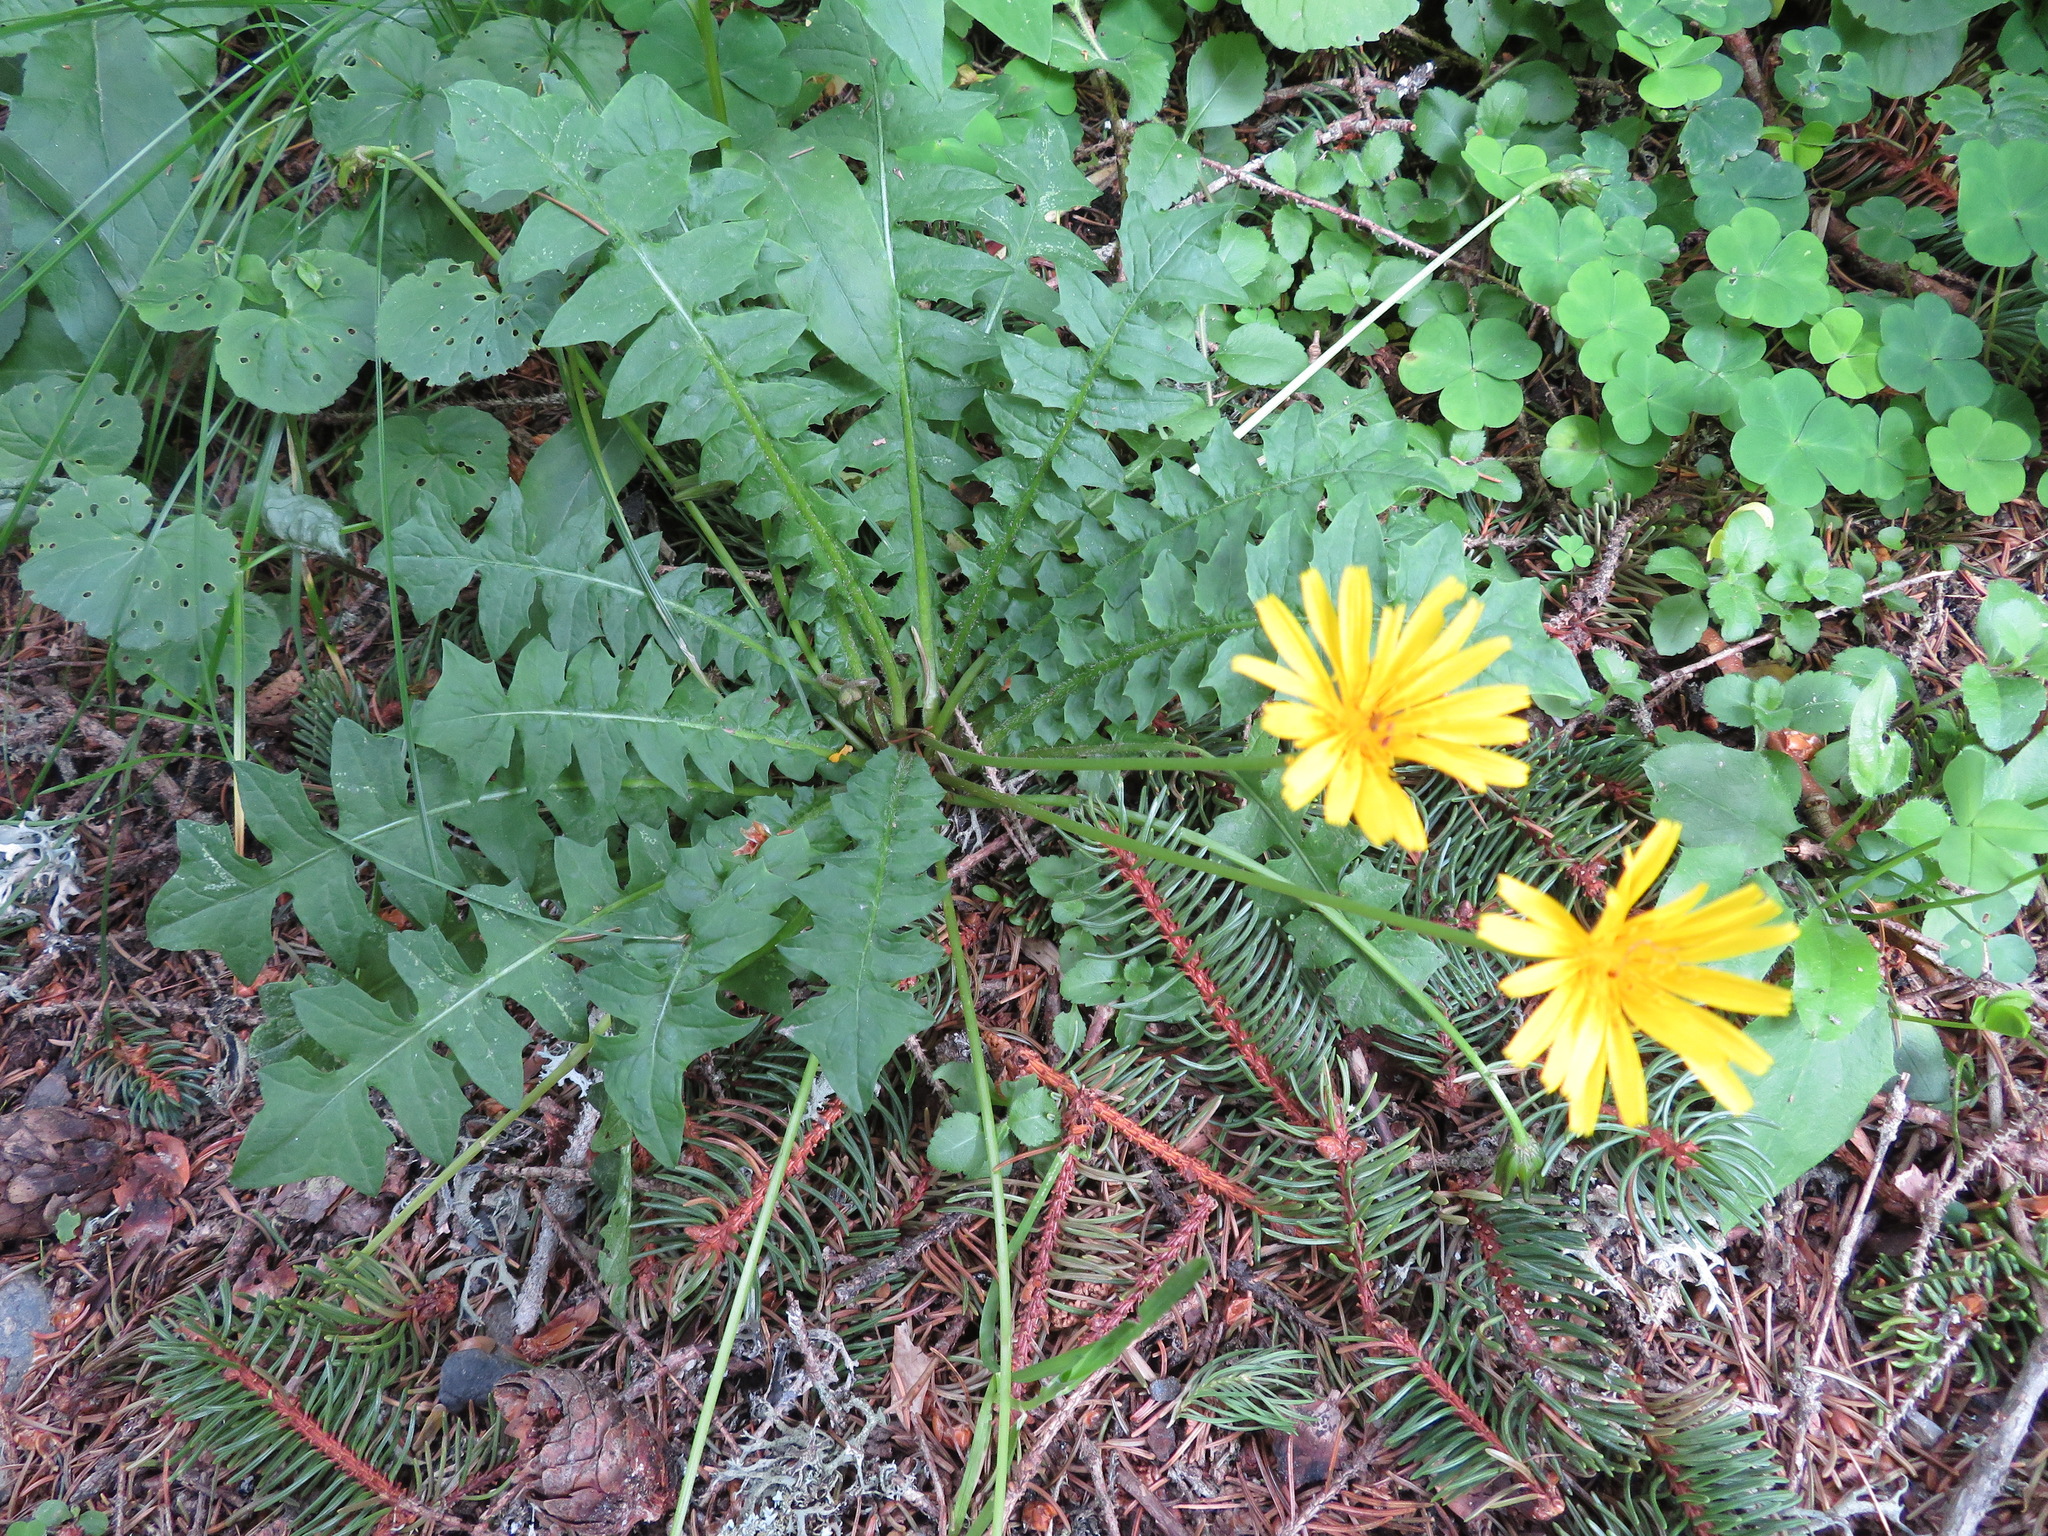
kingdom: Plantae
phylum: Tracheophyta
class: Magnoliopsida
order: Asterales
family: Asteraceae
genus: Aposeris
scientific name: Aposeris foetida
